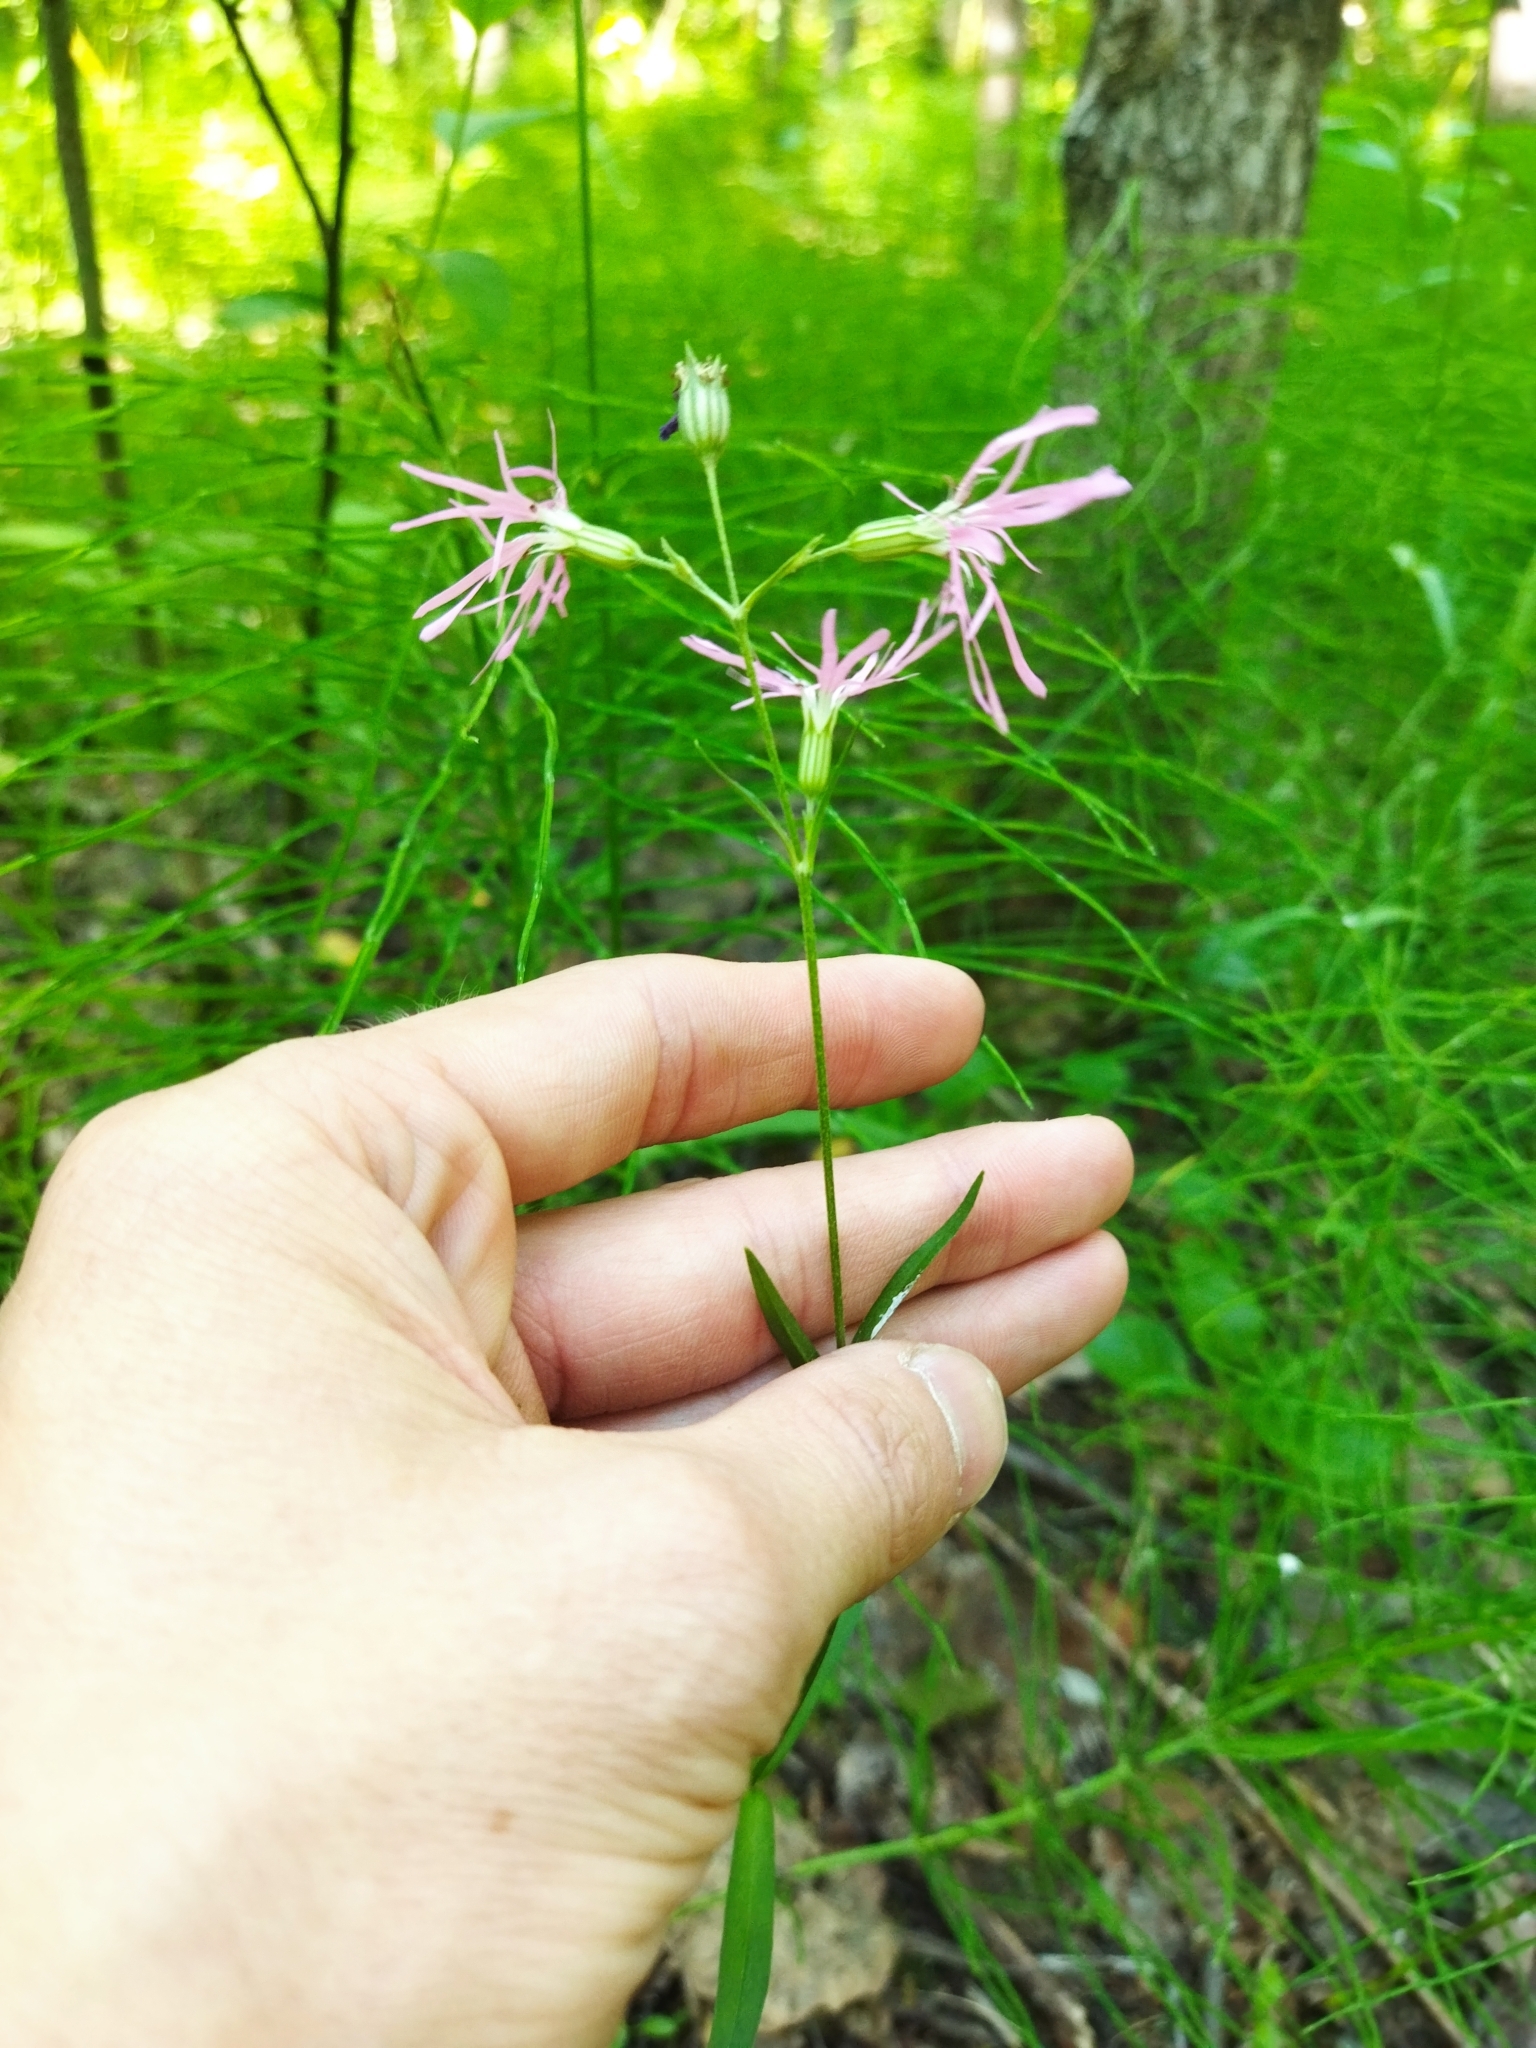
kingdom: Plantae
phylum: Tracheophyta
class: Magnoliopsida
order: Caryophyllales
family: Caryophyllaceae
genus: Silene
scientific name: Silene flos-cuculi
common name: Ragged-robin
